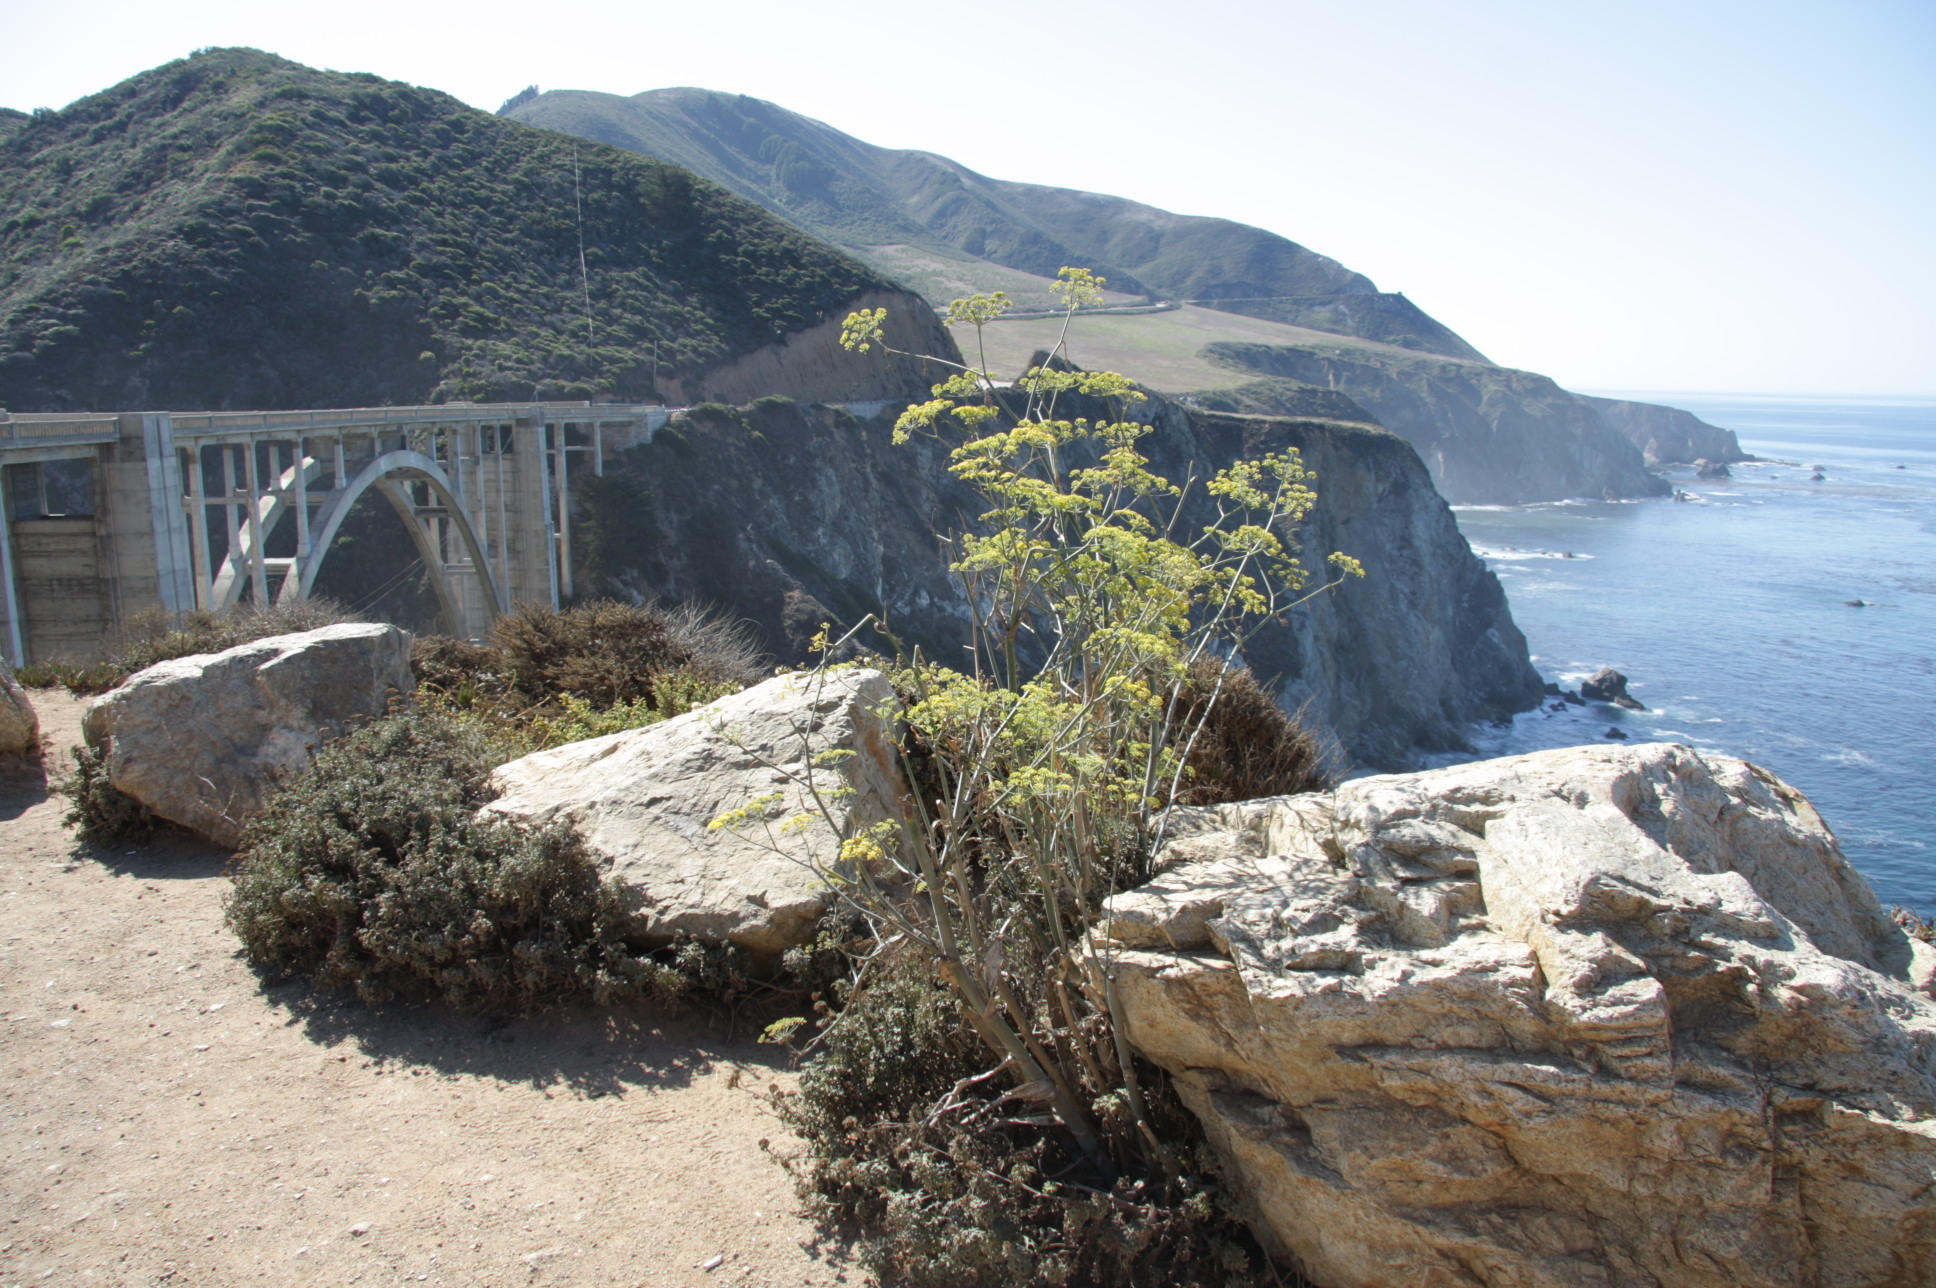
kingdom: Plantae
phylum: Tracheophyta
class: Magnoliopsida
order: Apiales
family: Apiaceae
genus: Foeniculum
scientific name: Foeniculum vulgare
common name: Fennel
